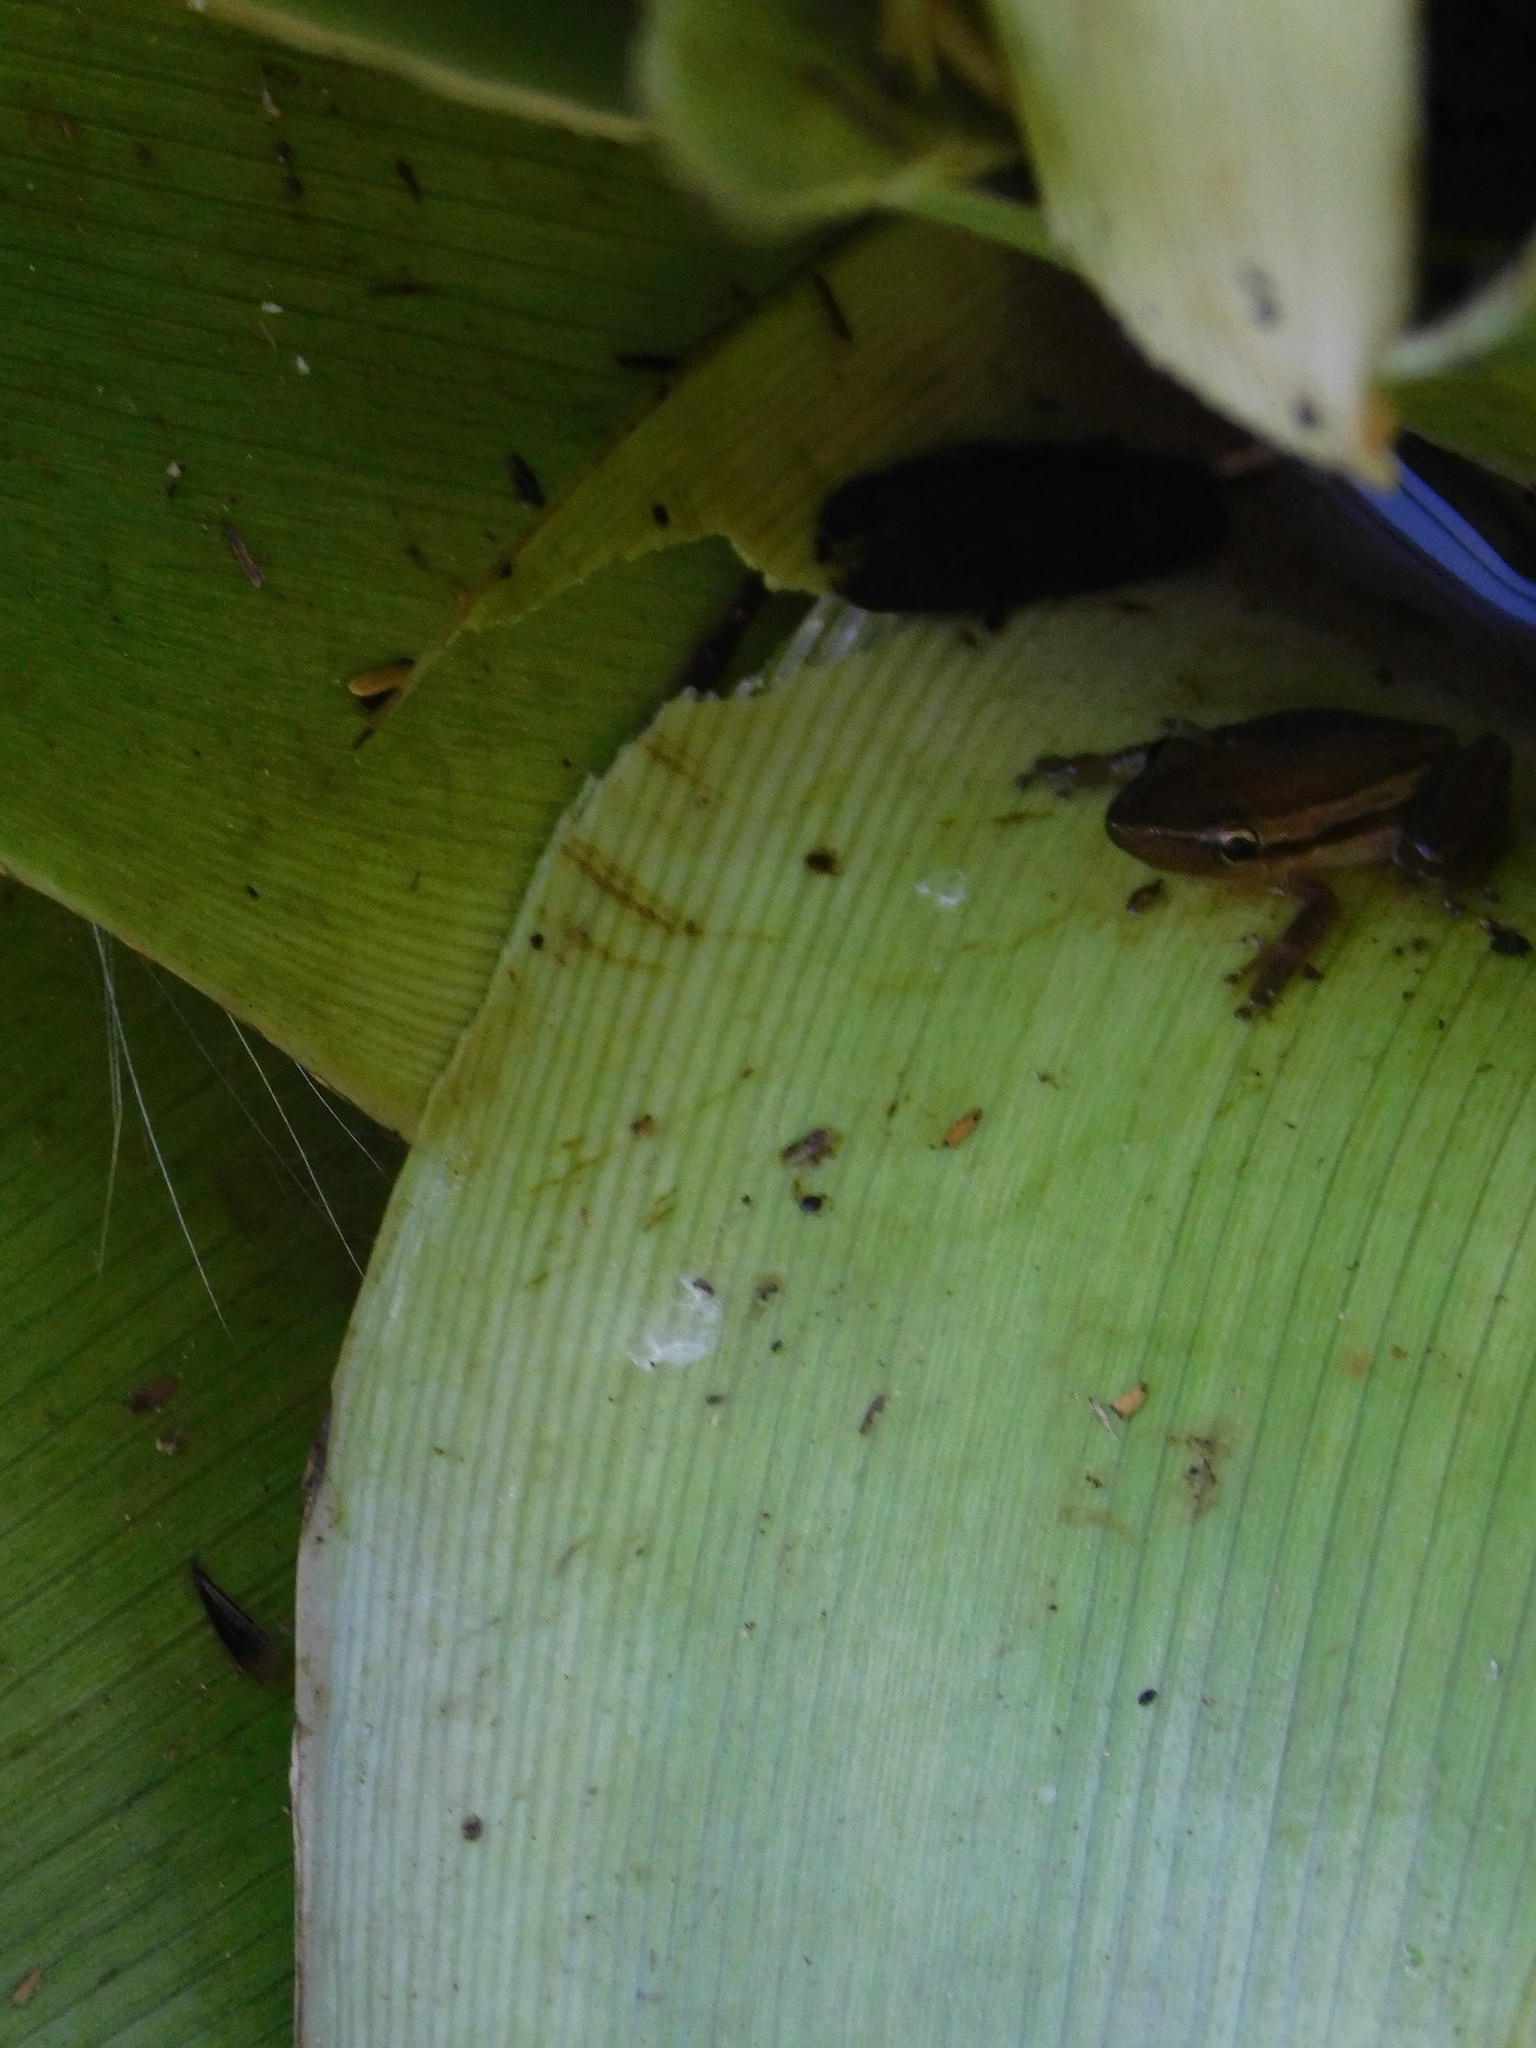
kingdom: Animalia
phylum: Chordata
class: Amphibia
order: Anura
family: Hylidae
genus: Scinax
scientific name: Scinax squalirostris
